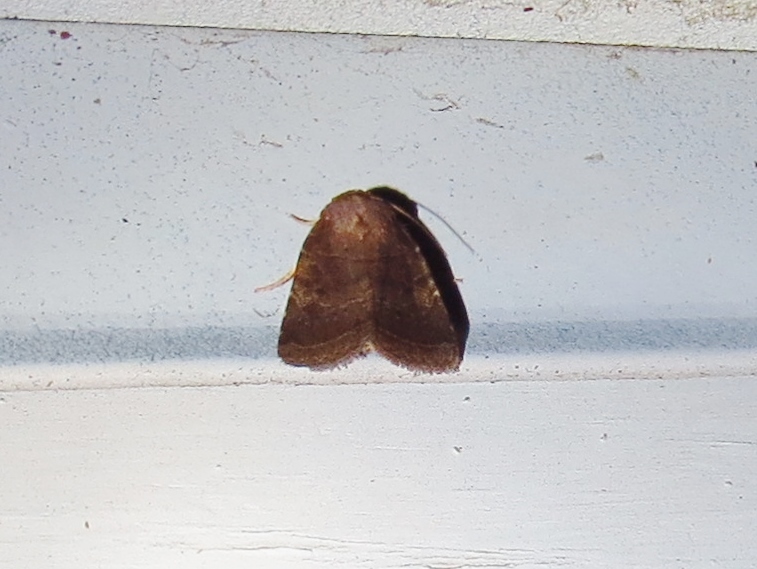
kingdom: Animalia
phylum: Arthropoda
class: Insecta
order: Lepidoptera
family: Noctuidae
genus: Orthodes
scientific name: Orthodes furtiva
